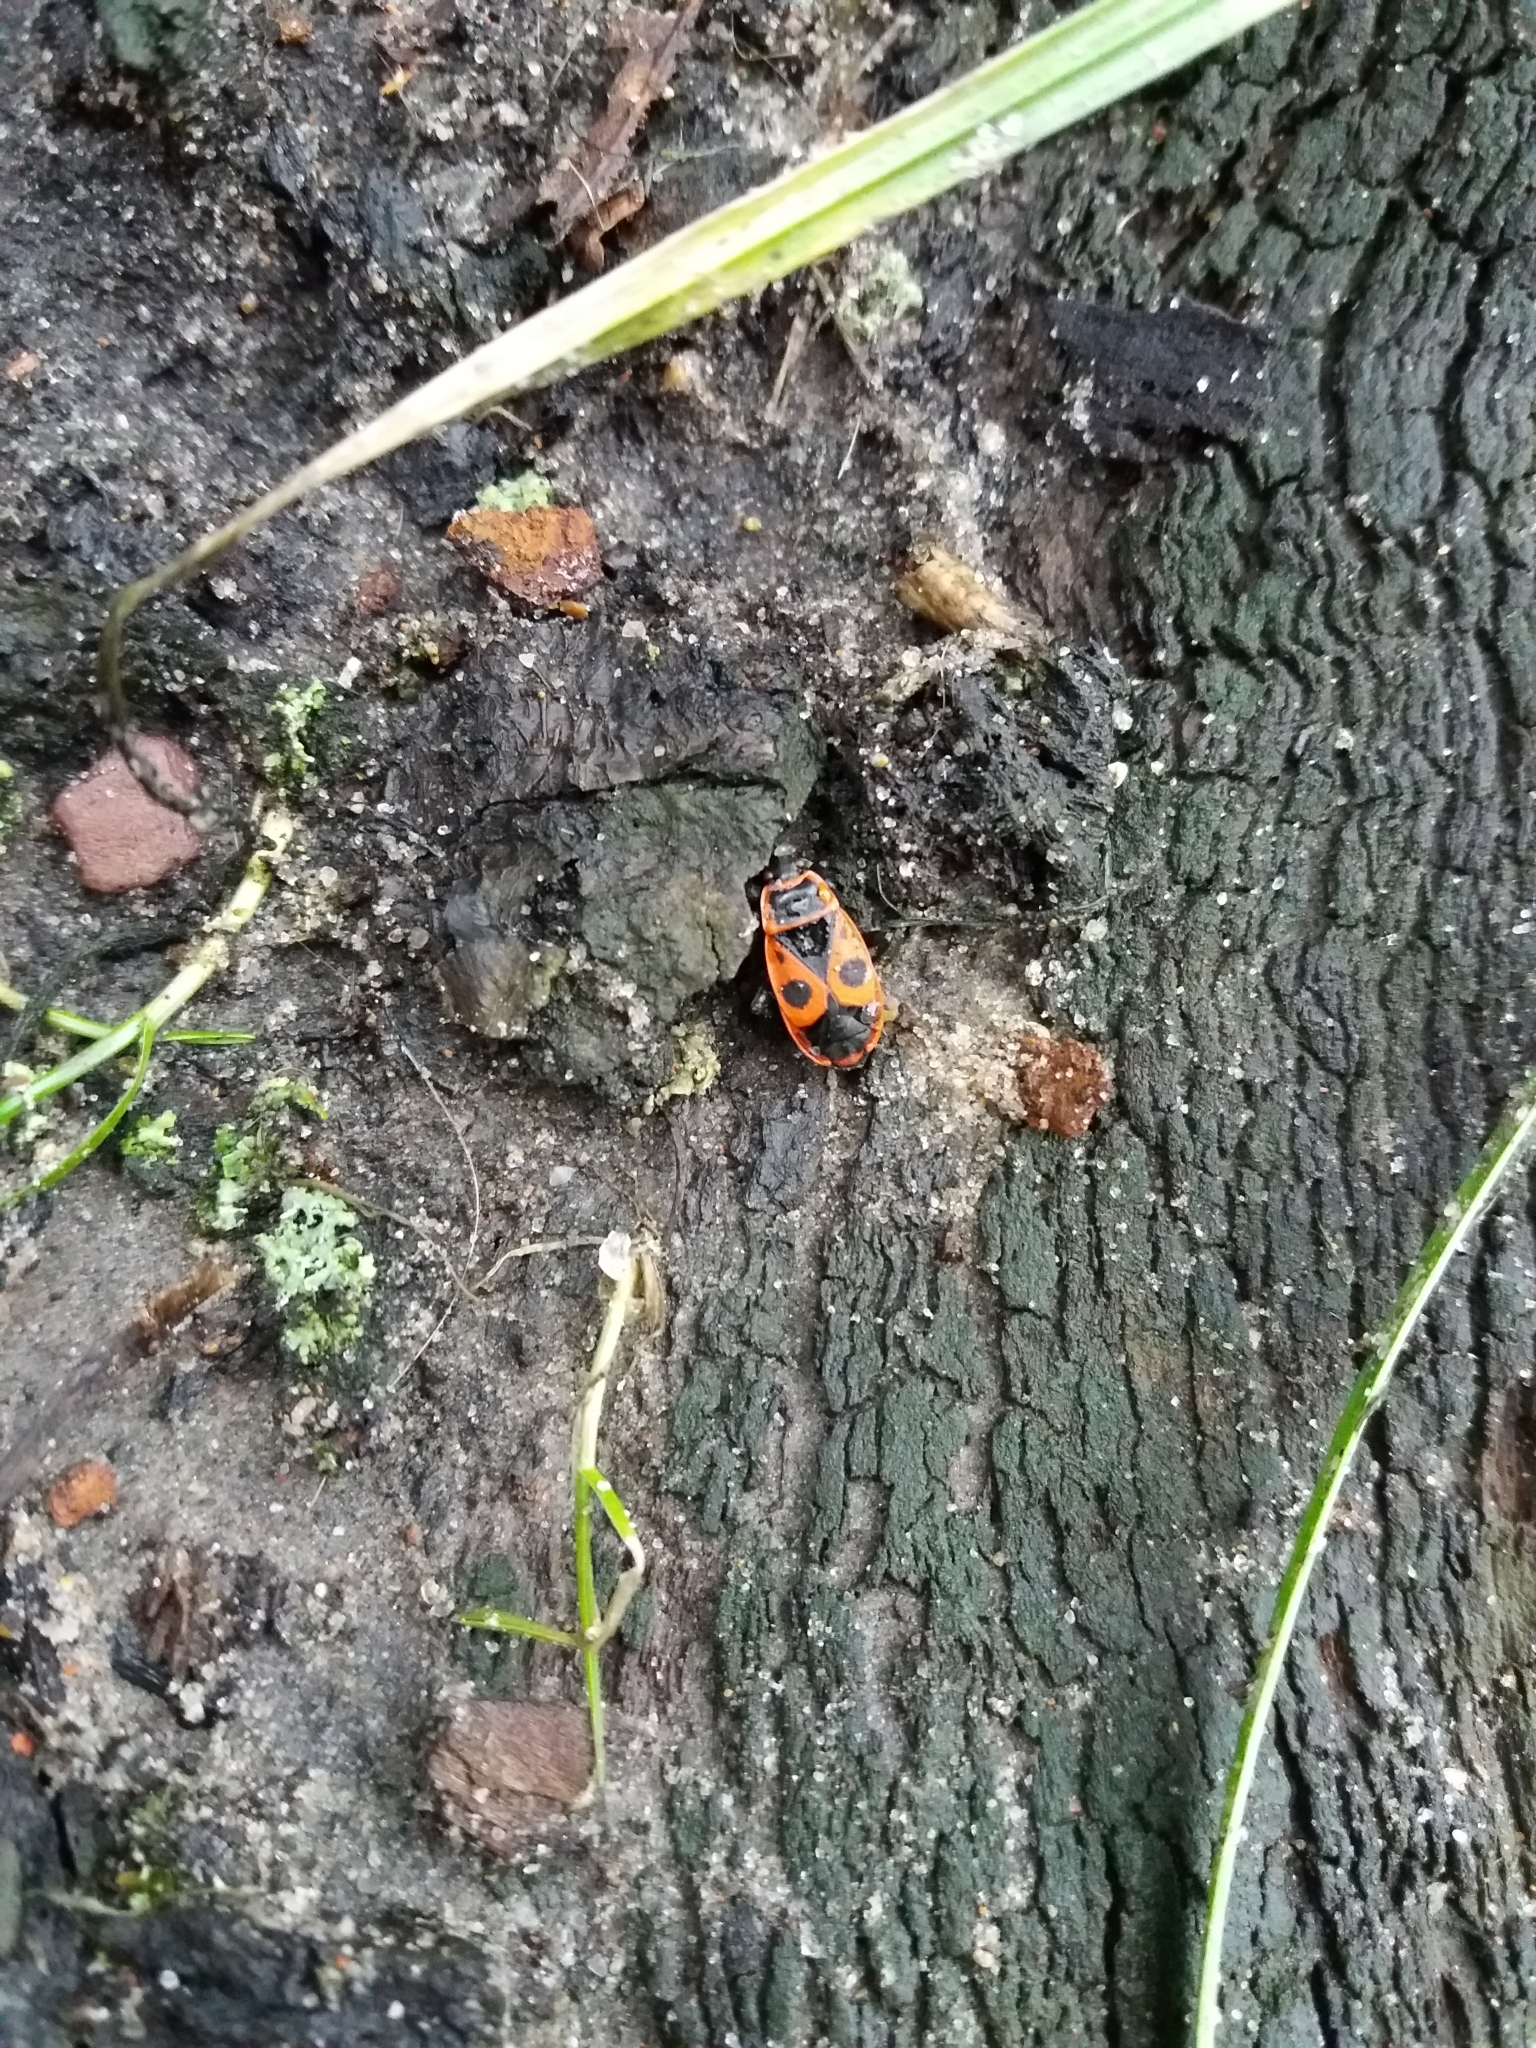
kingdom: Animalia
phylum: Arthropoda
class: Insecta
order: Hemiptera
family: Pyrrhocoridae
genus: Pyrrhocoris
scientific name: Pyrrhocoris apterus
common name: Firebug
